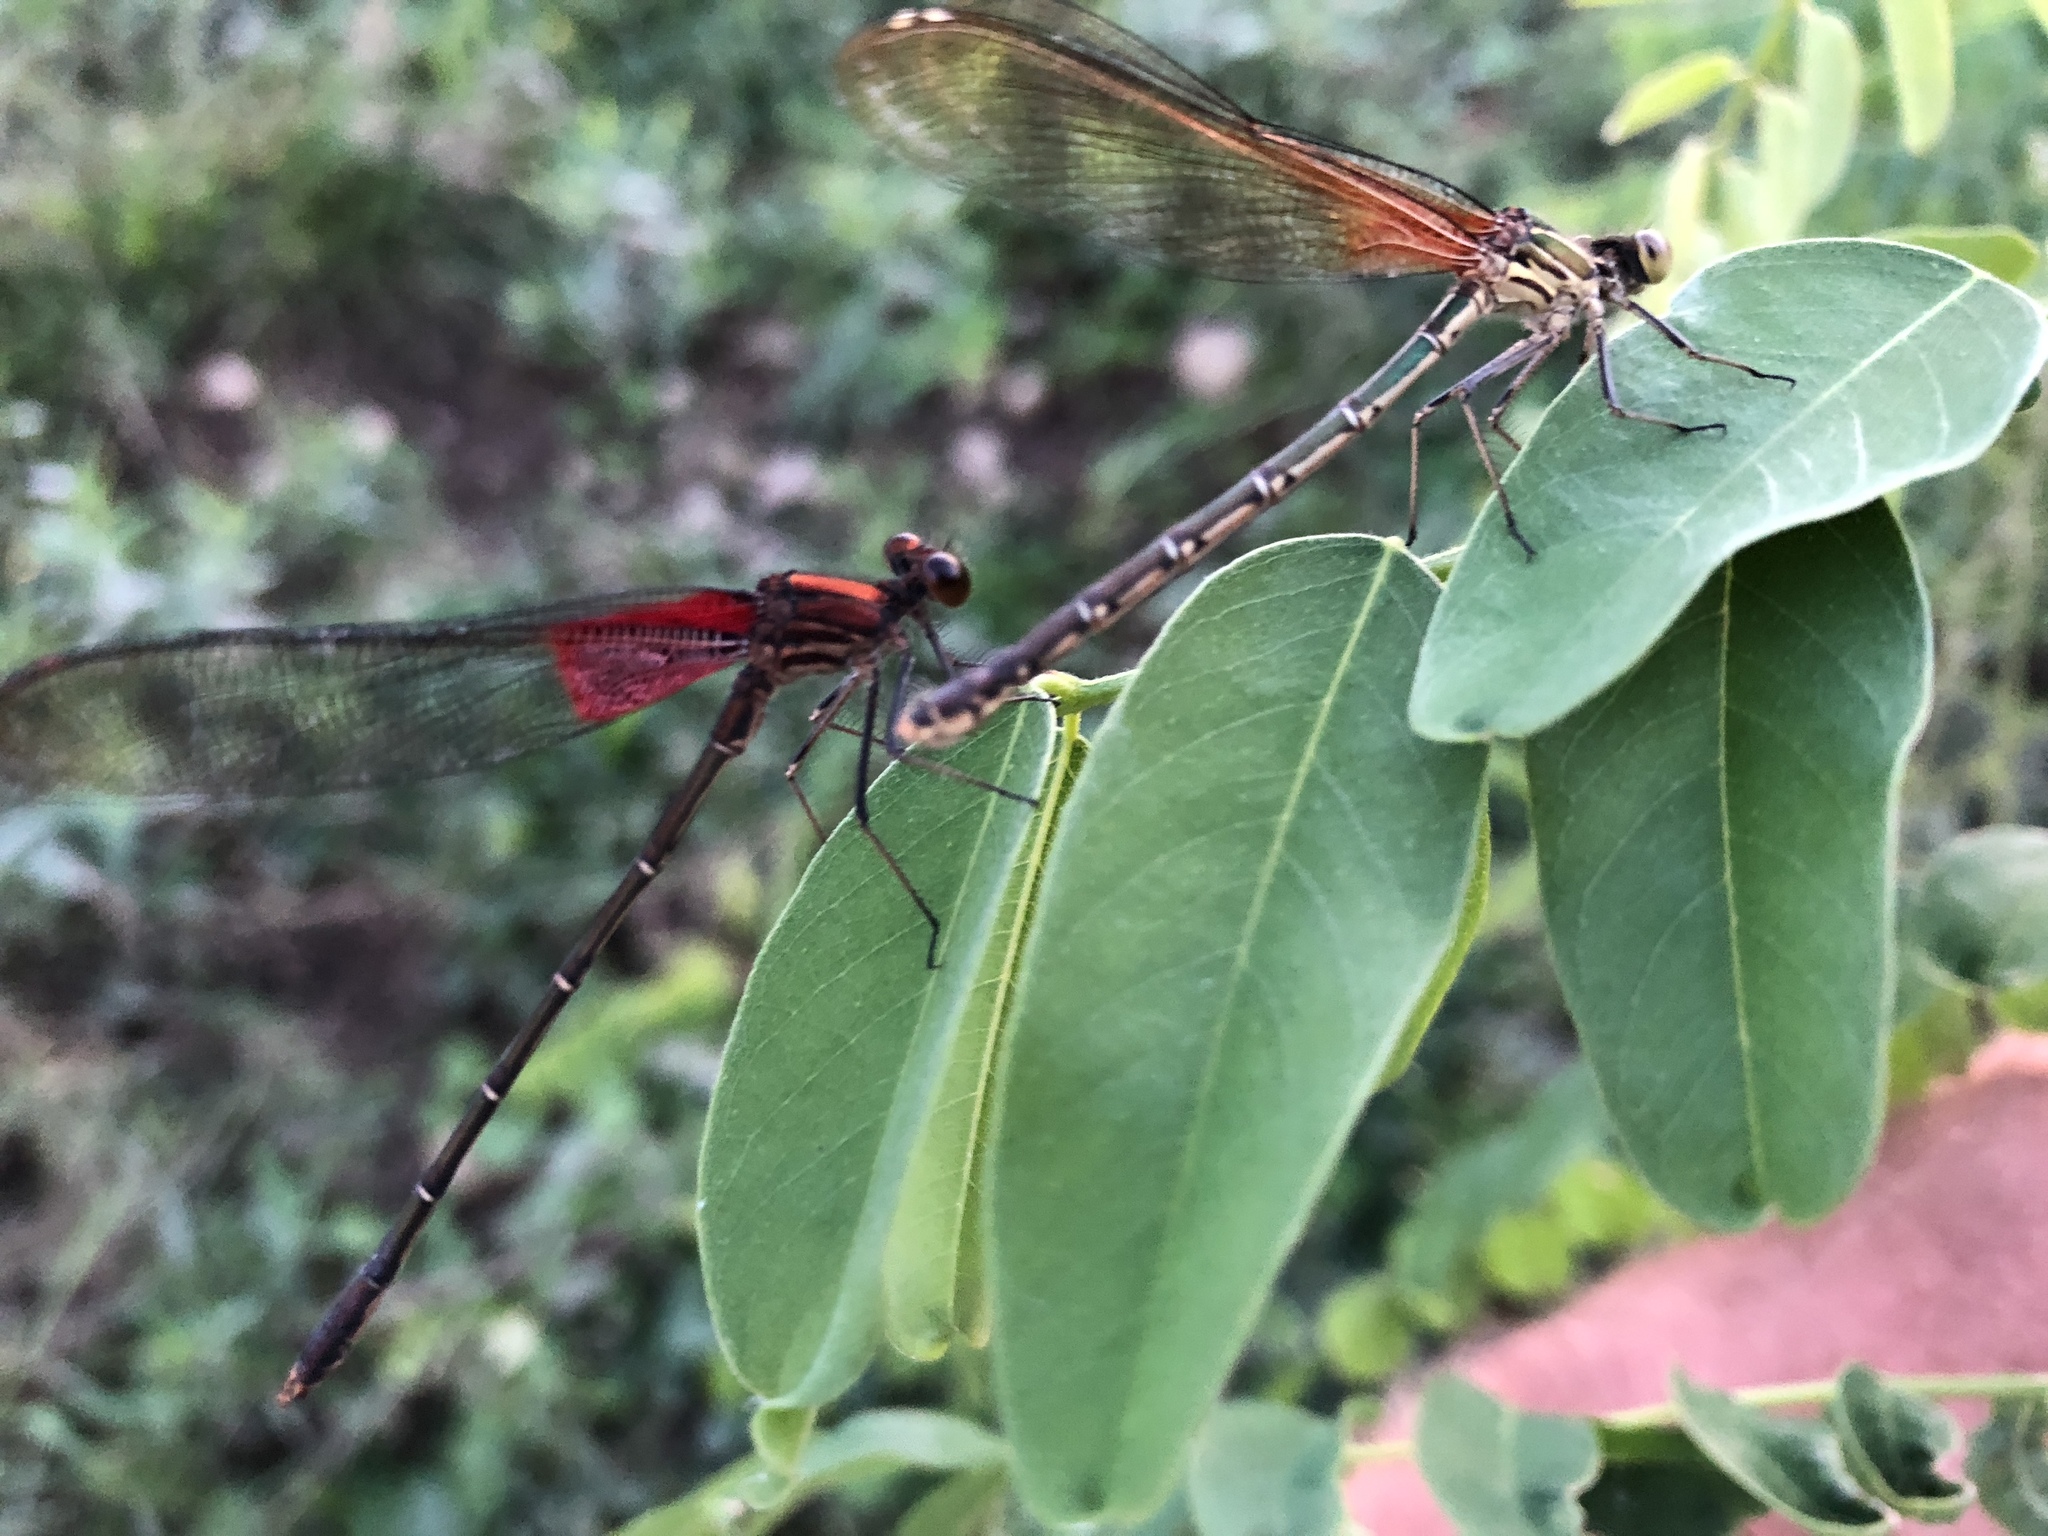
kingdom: Animalia
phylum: Arthropoda
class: Insecta
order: Odonata
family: Calopterygidae
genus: Hetaerina
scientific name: Hetaerina americana
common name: American rubyspot
